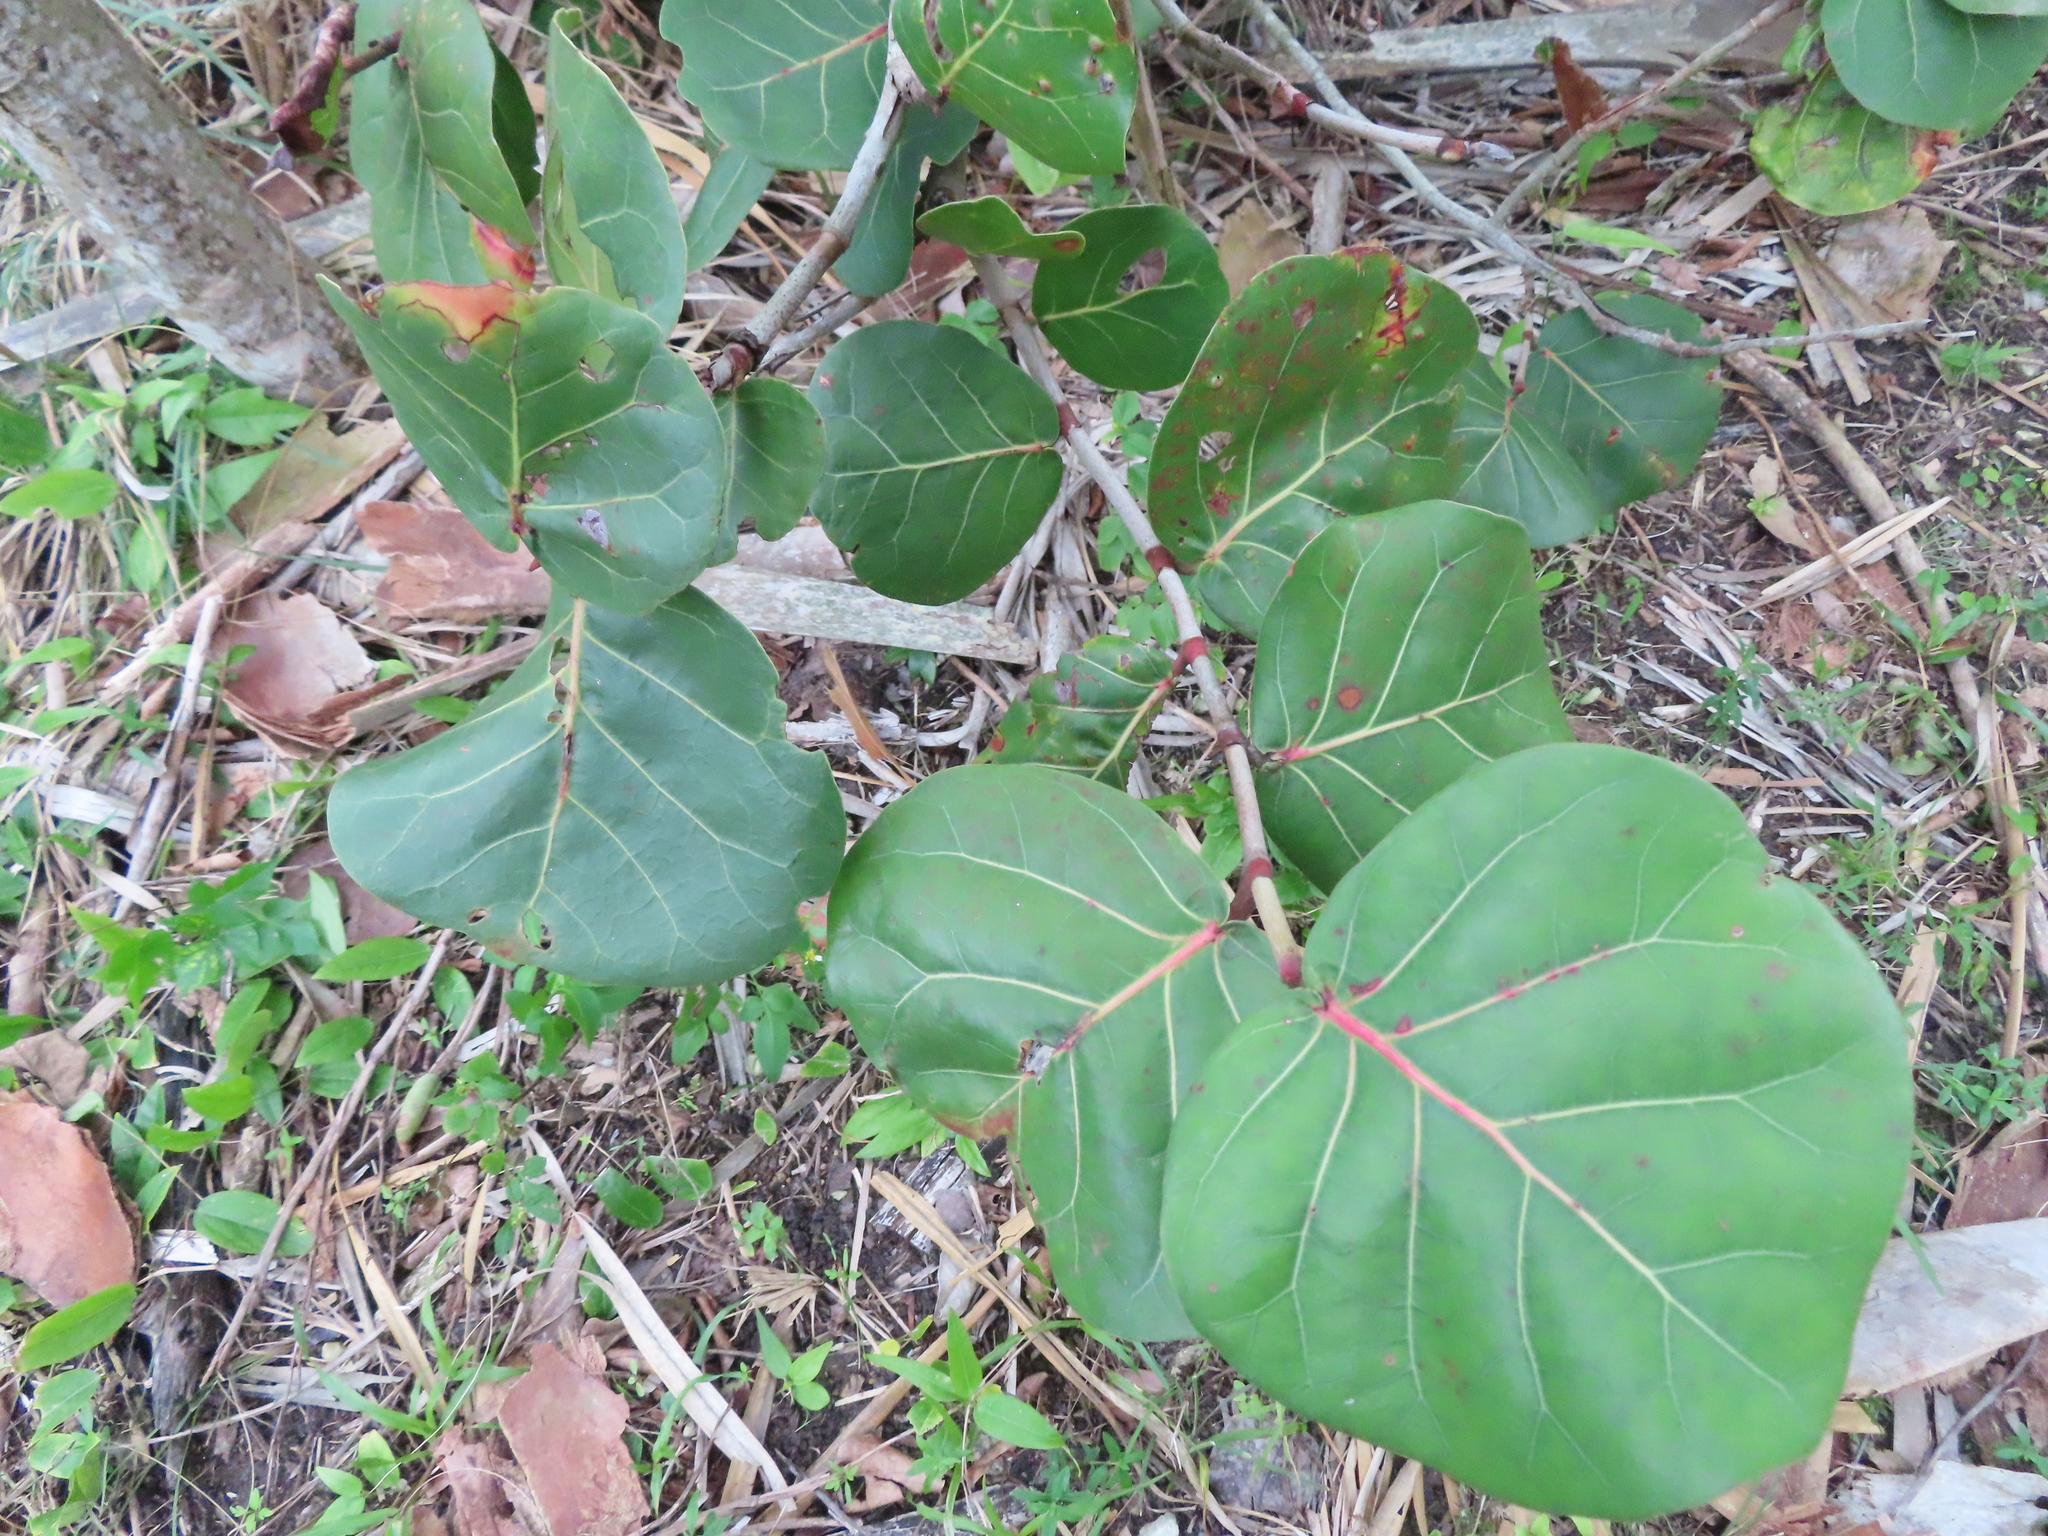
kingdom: Plantae
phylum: Tracheophyta
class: Magnoliopsida
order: Caryophyllales
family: Polygonaceae
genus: Coccoloba
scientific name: Coccoloba uvifera
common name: Seagrape
